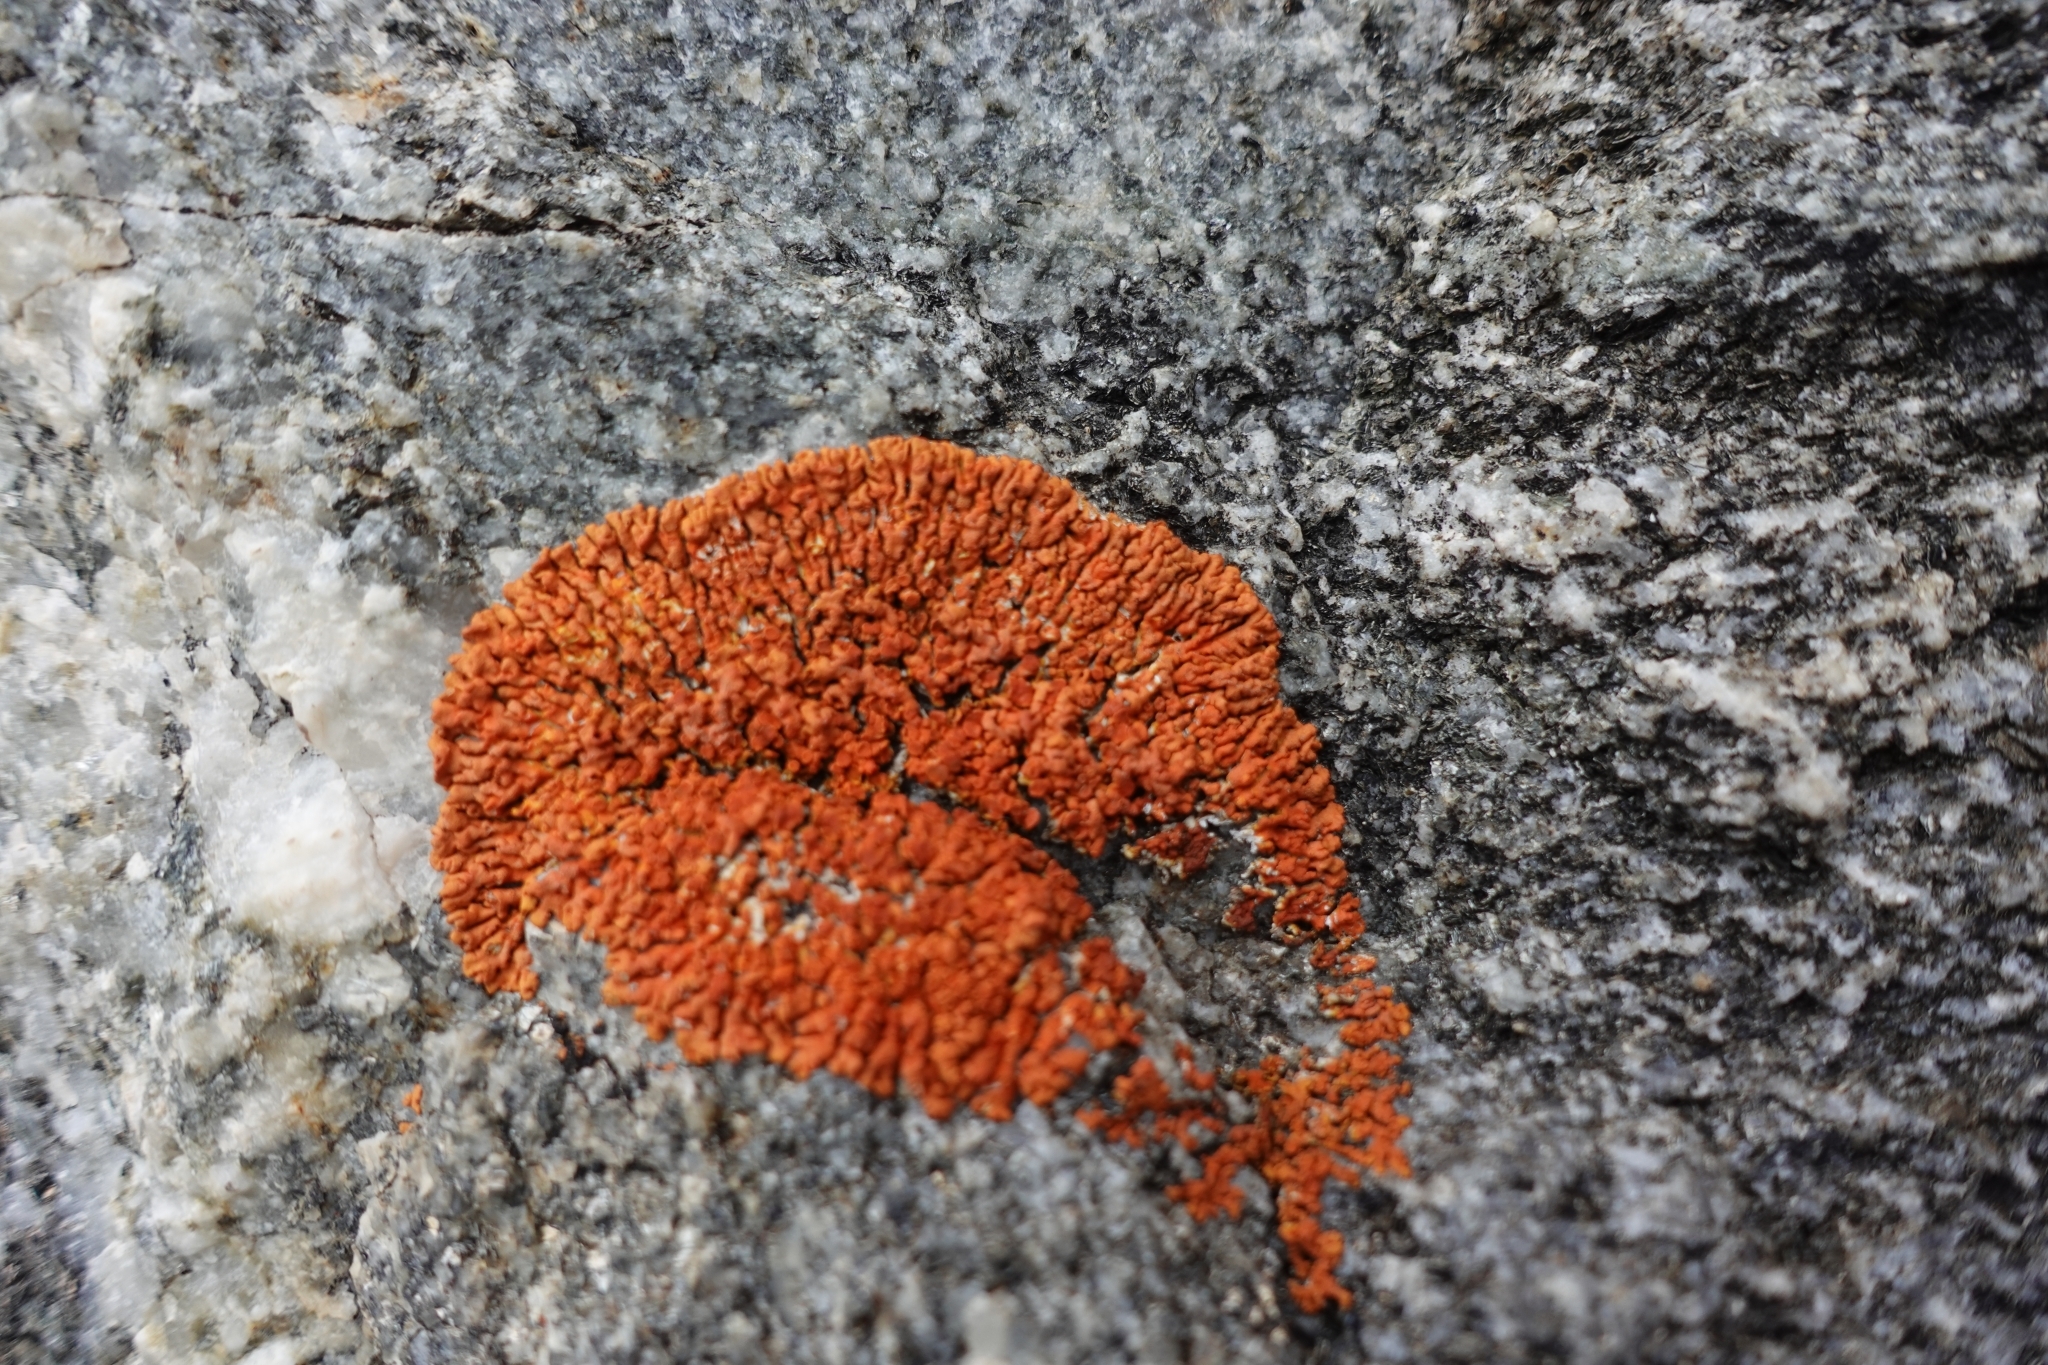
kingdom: Fungi
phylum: Ascomycota
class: Lecanoromycetes
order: Teloschistales
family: Teloschistaceae
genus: Xanthoria
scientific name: Xanthoria elegans
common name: Elegant sunburst lichen
